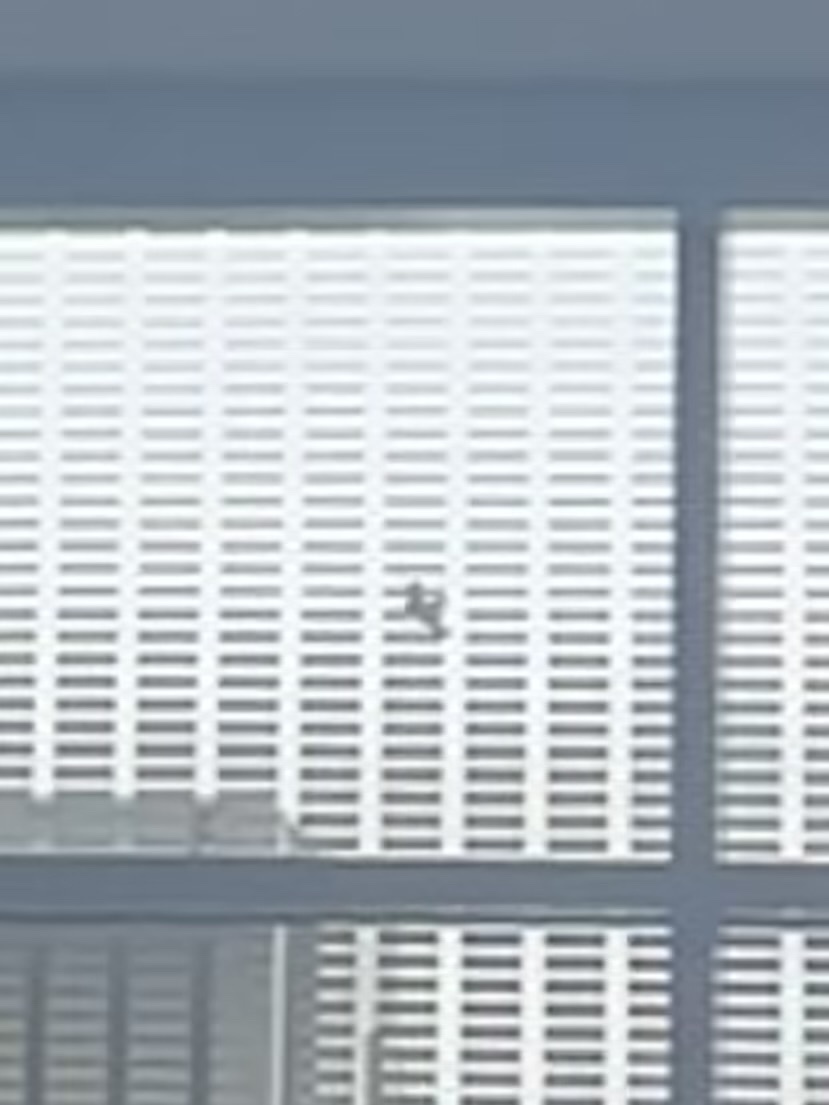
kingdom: Animalia
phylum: Chordata
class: Aves
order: Columbiformes
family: Columbidae
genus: Columba
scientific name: Columba livia
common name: Rock pigeon
